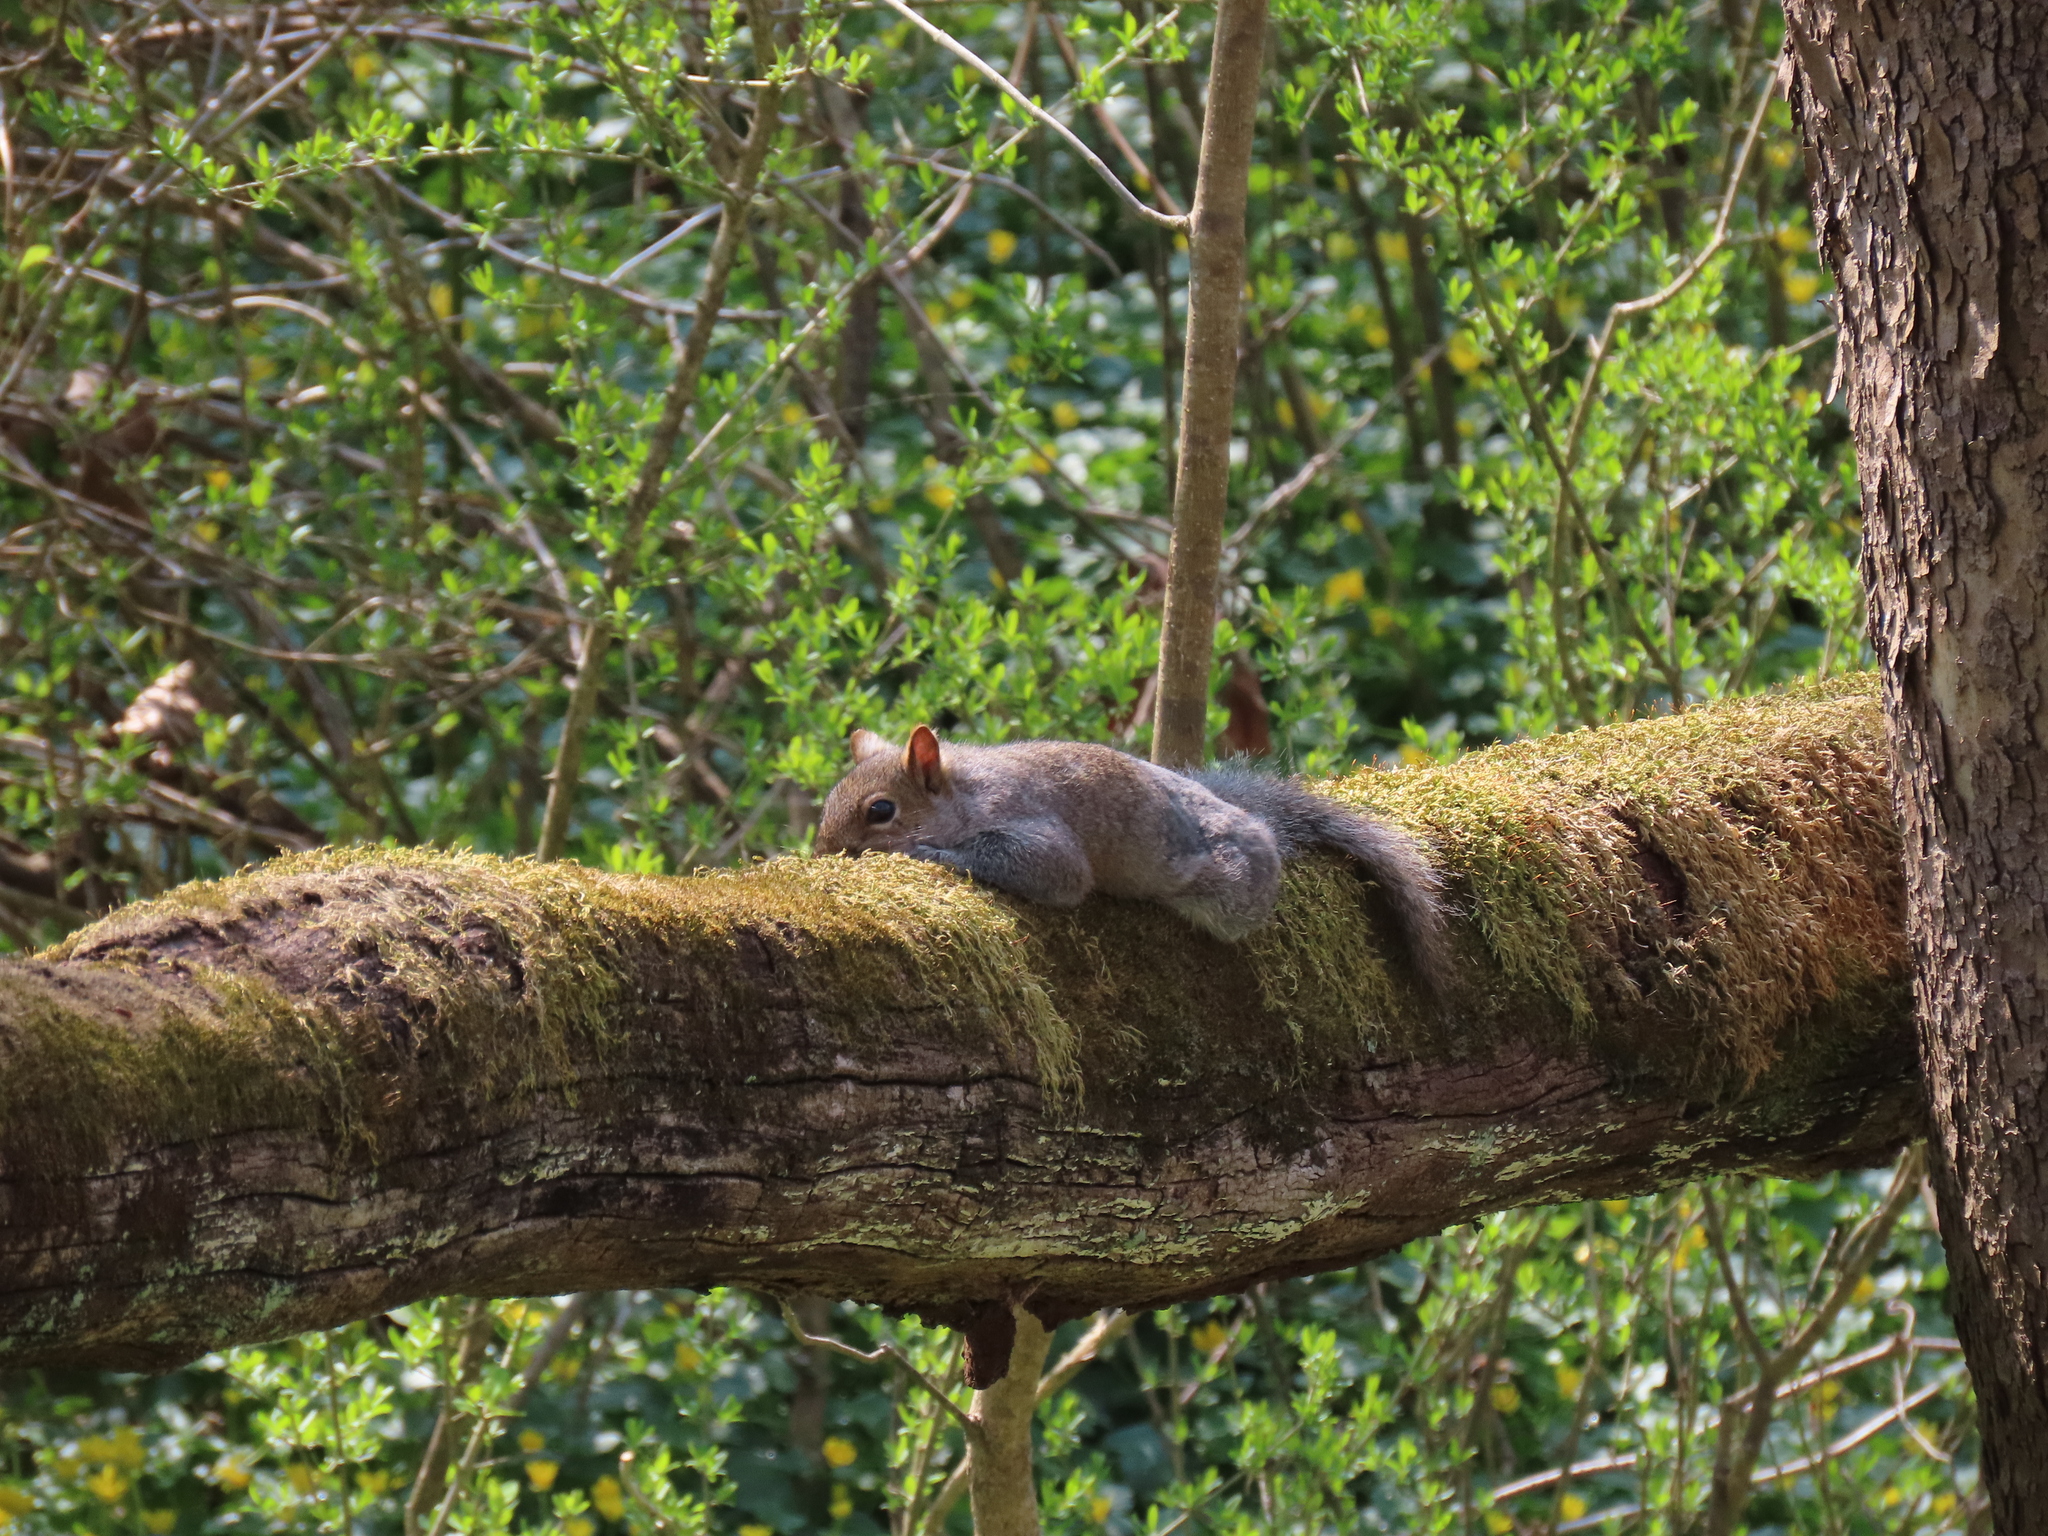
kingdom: Animalia
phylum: Chordata
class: Mammalia
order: Rodentia
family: Sciuridae
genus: Sciurus
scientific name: Sciurus carolinensis
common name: Eastern gray squirrel
